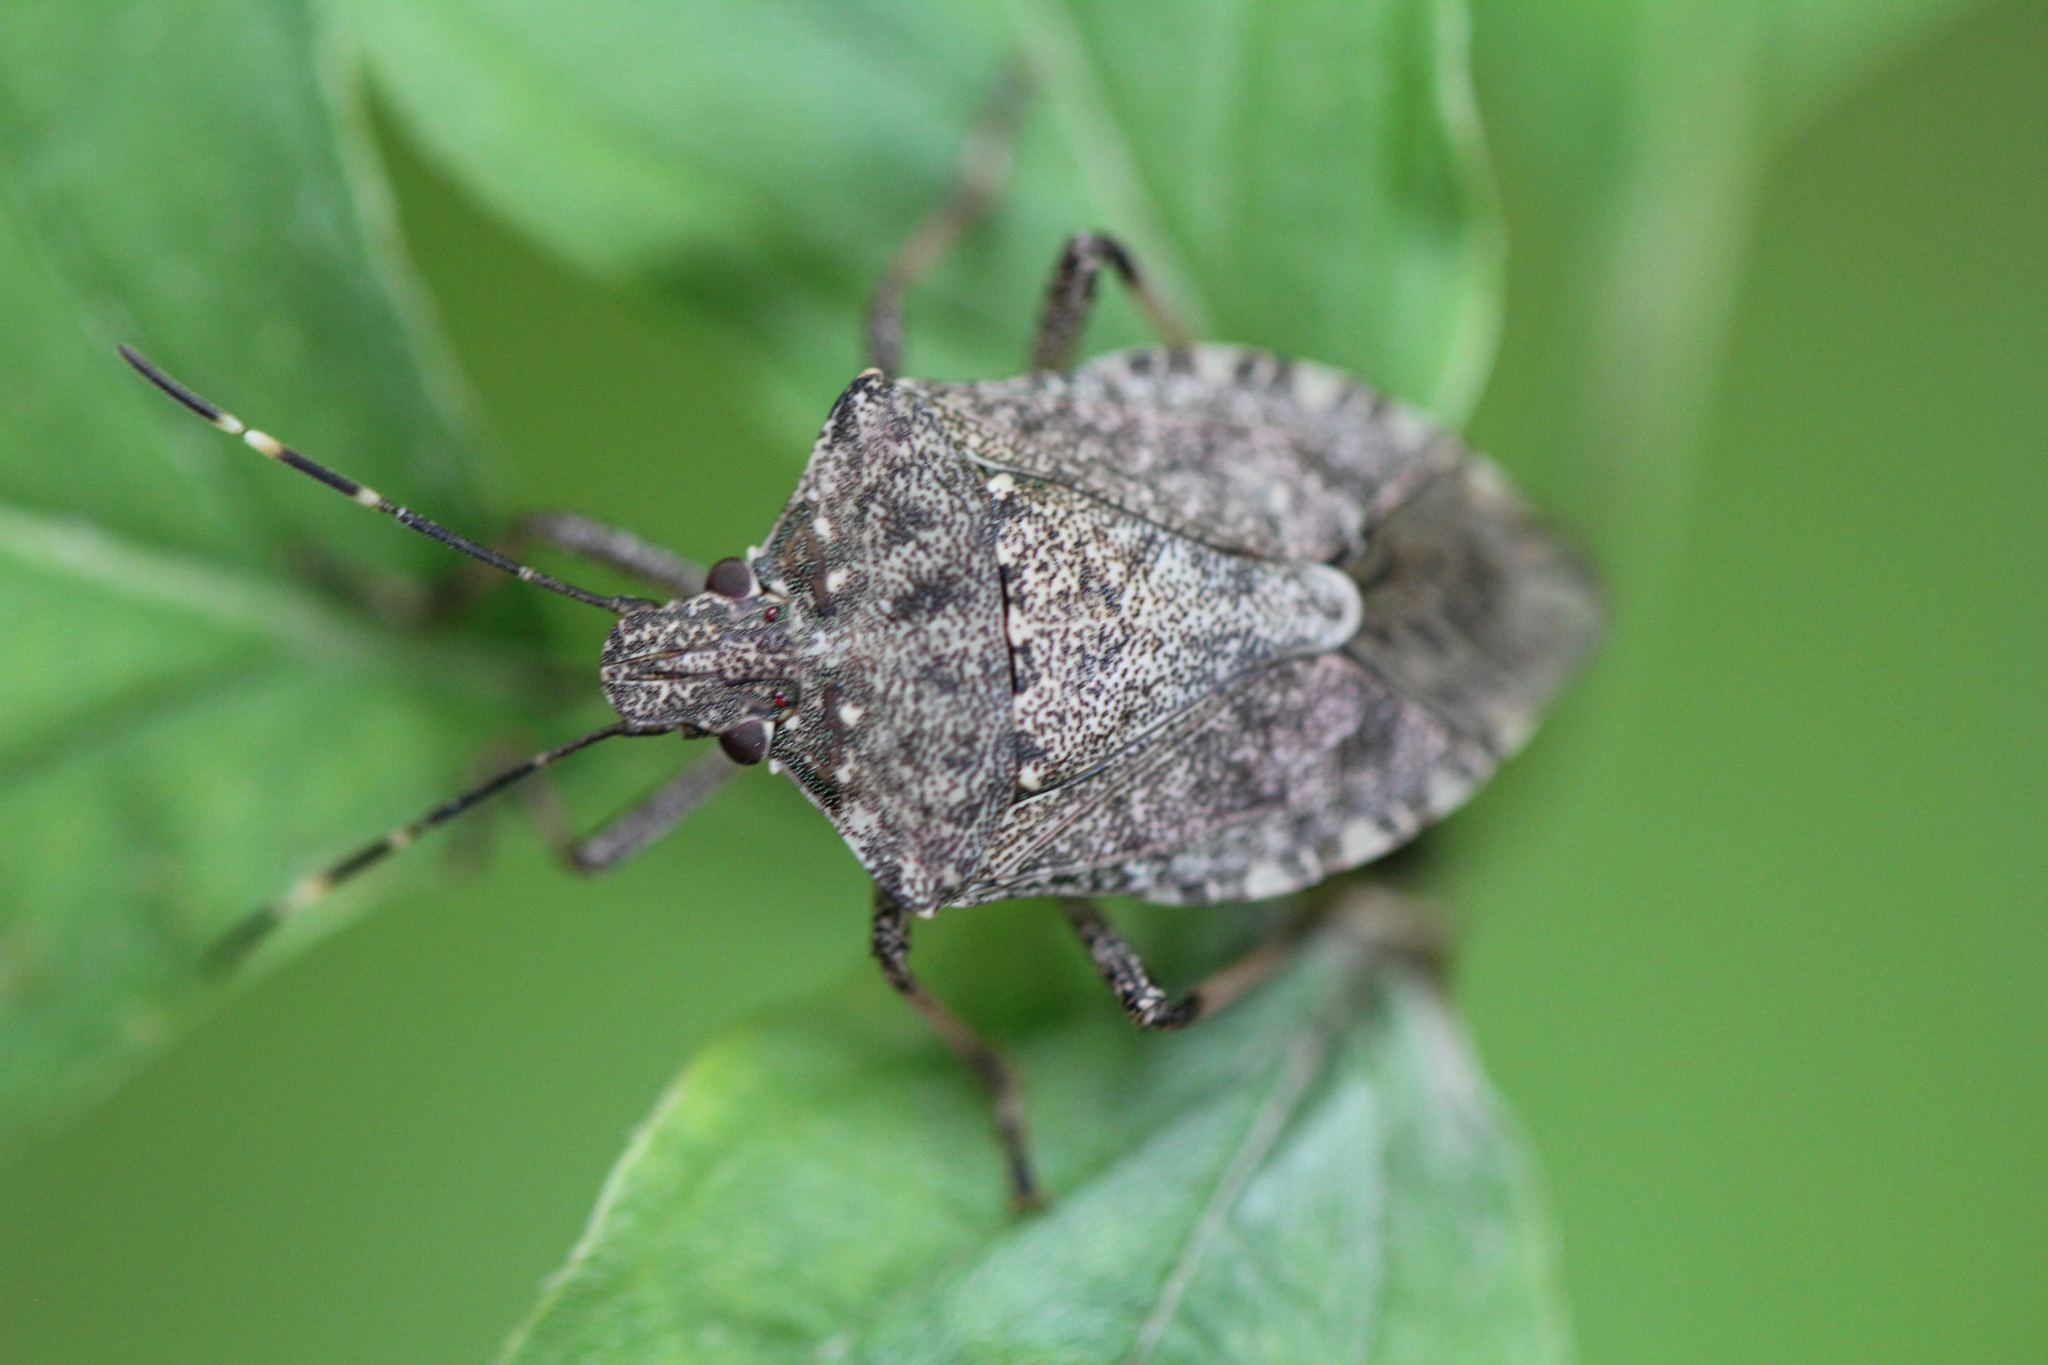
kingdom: Animalia
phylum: Arthropoda
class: Insecta
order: Hemiptera
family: Pentatomidae
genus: Halyomorpha
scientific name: Halyomorpha halys
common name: Brown marmorated stink bug
